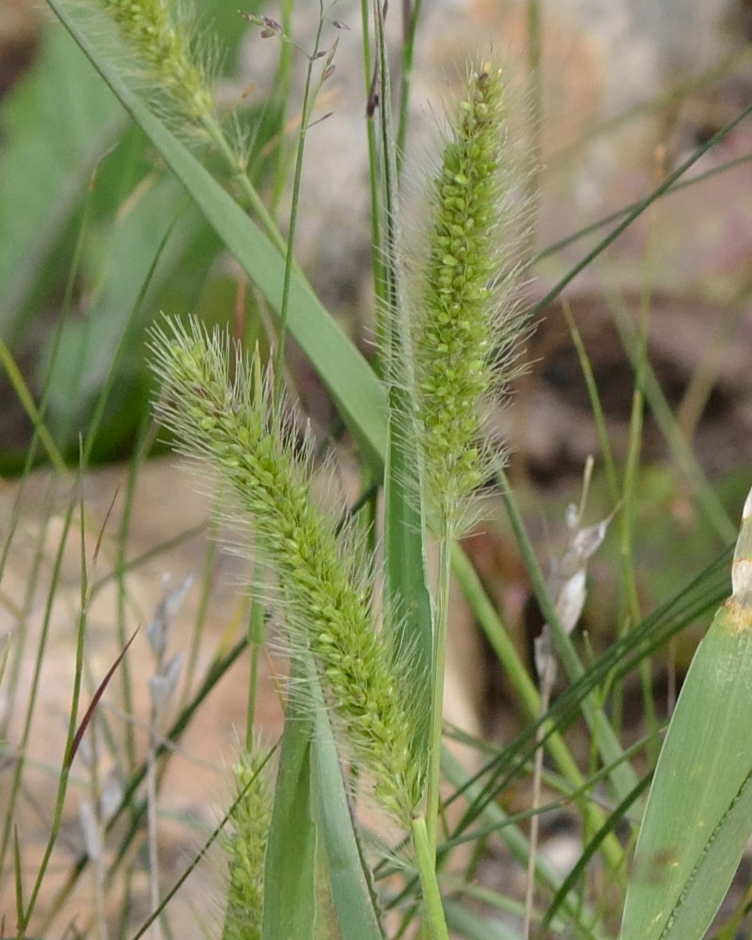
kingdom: Plantae
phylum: Tracheophyta
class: Liliopsida
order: Poales
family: Poaceae
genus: Setaria
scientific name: Setaria viridis
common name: Green bristlegrass
